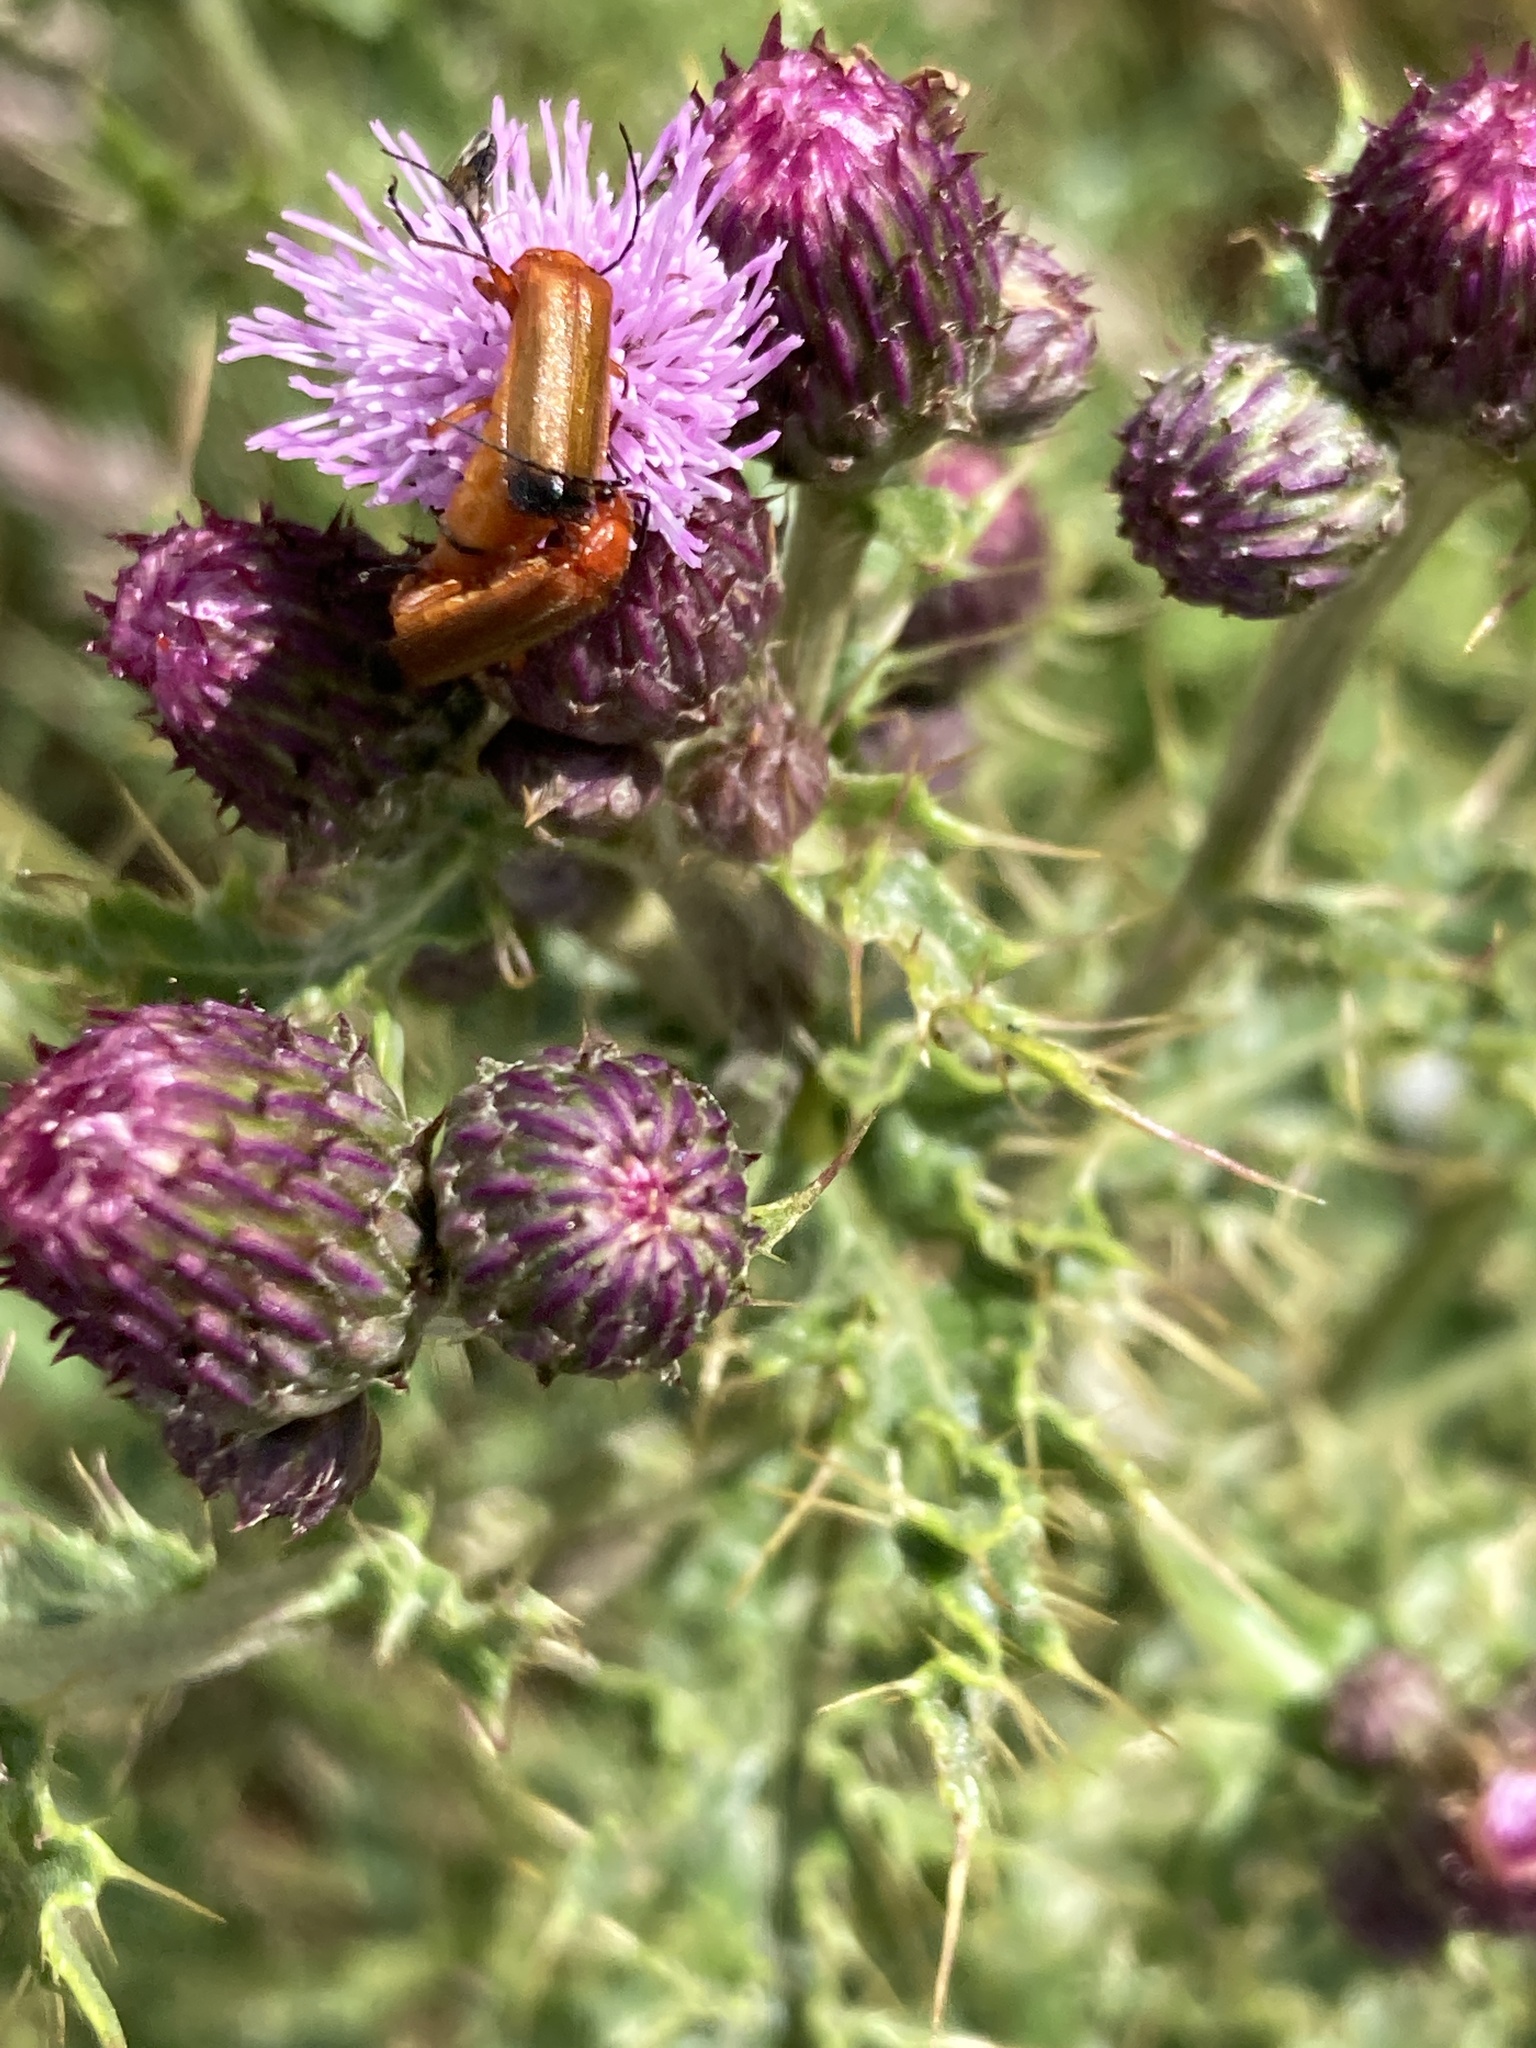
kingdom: Animalia
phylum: Arthropoda
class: Insecta
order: Coleoptera
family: Cantharidae
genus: Rhagonycha
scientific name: Rhagonycha fulva
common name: Common red soldier beetle
